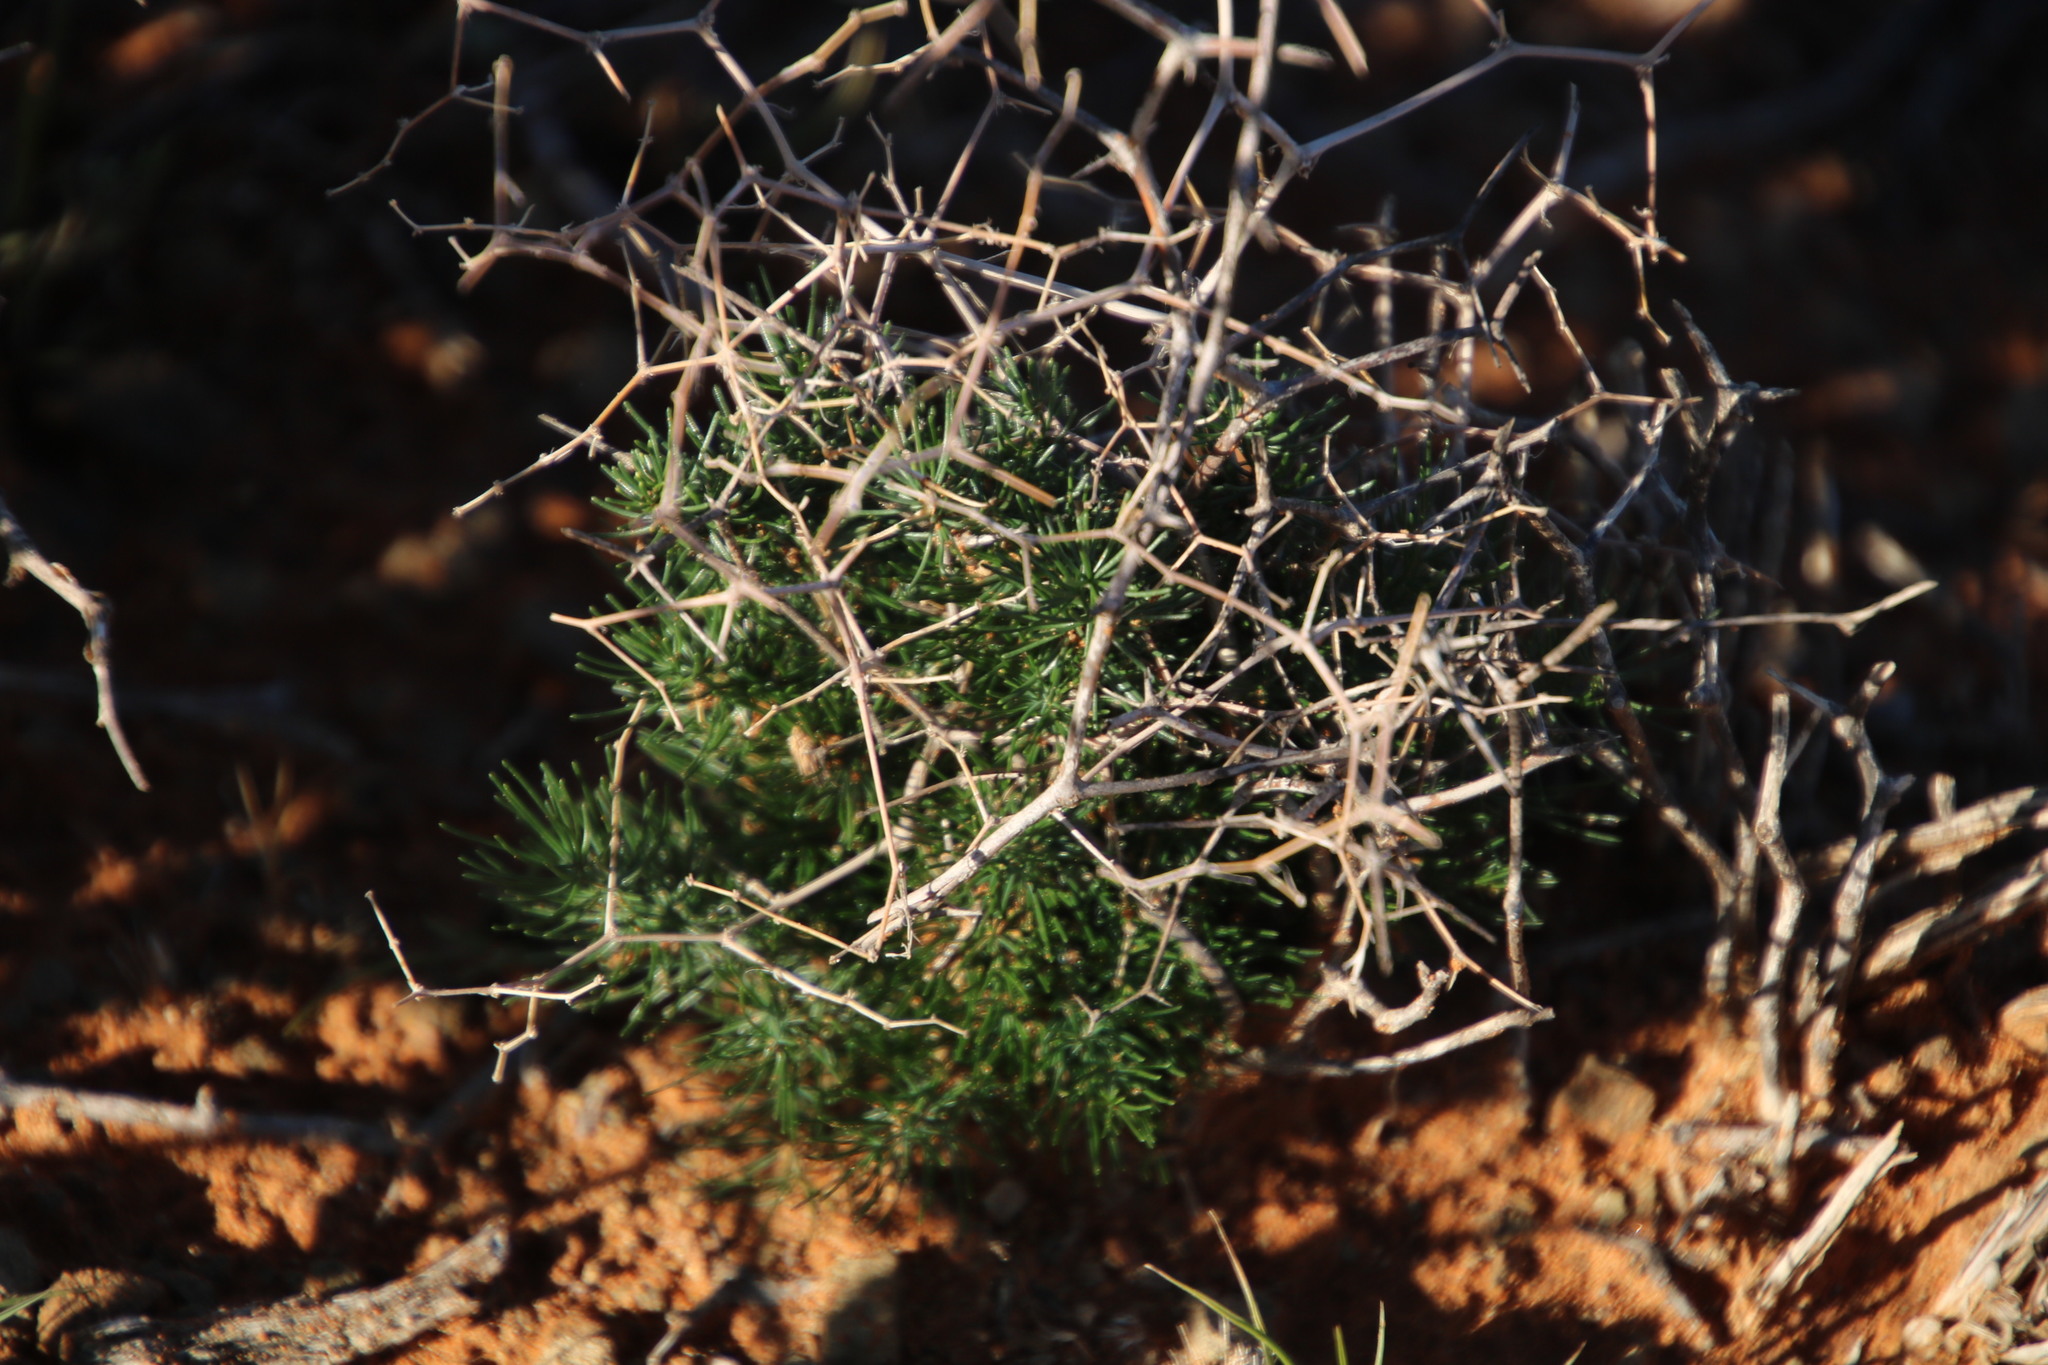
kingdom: Plantae
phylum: Tracheophyta
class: Liliopsida
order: Asparagales
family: Asparagaceae
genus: Asparagus
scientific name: Asparagus exuvialis
